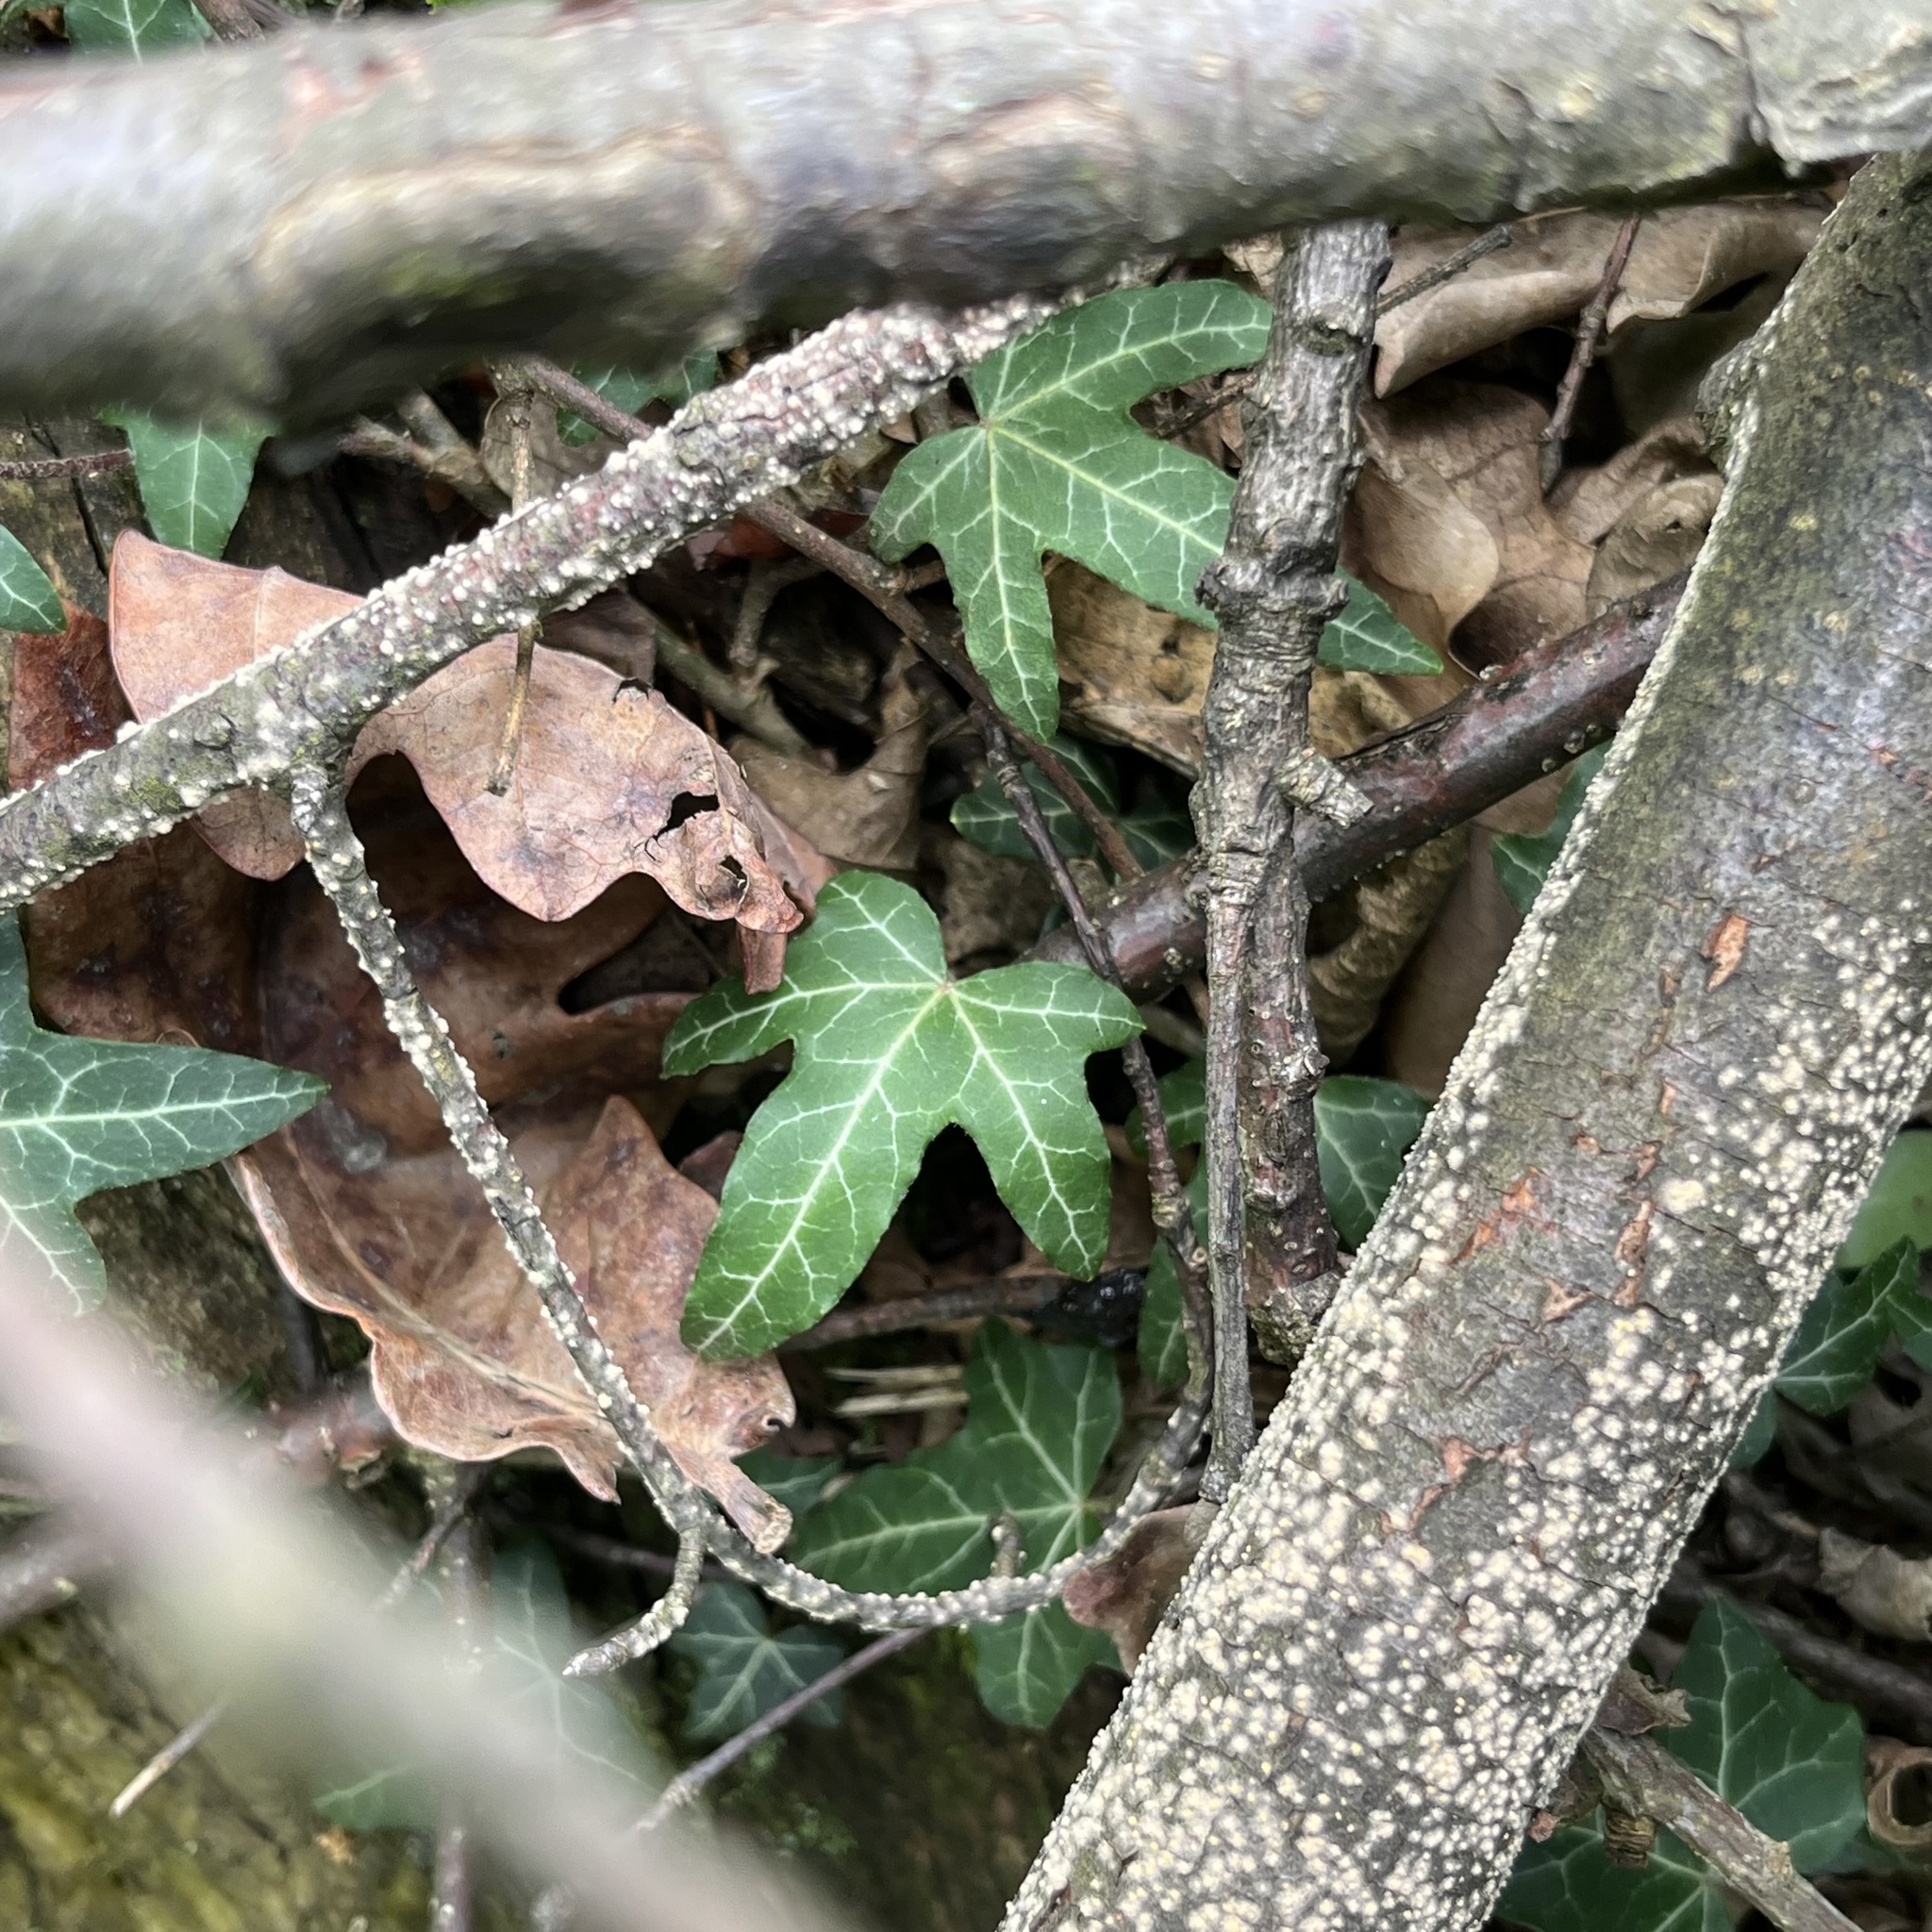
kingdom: Plantae
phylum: Tracheophyta
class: Magnoliopsida
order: Apiales
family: Araliaceae
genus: Hedera
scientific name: Hedera helix
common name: Ivy
